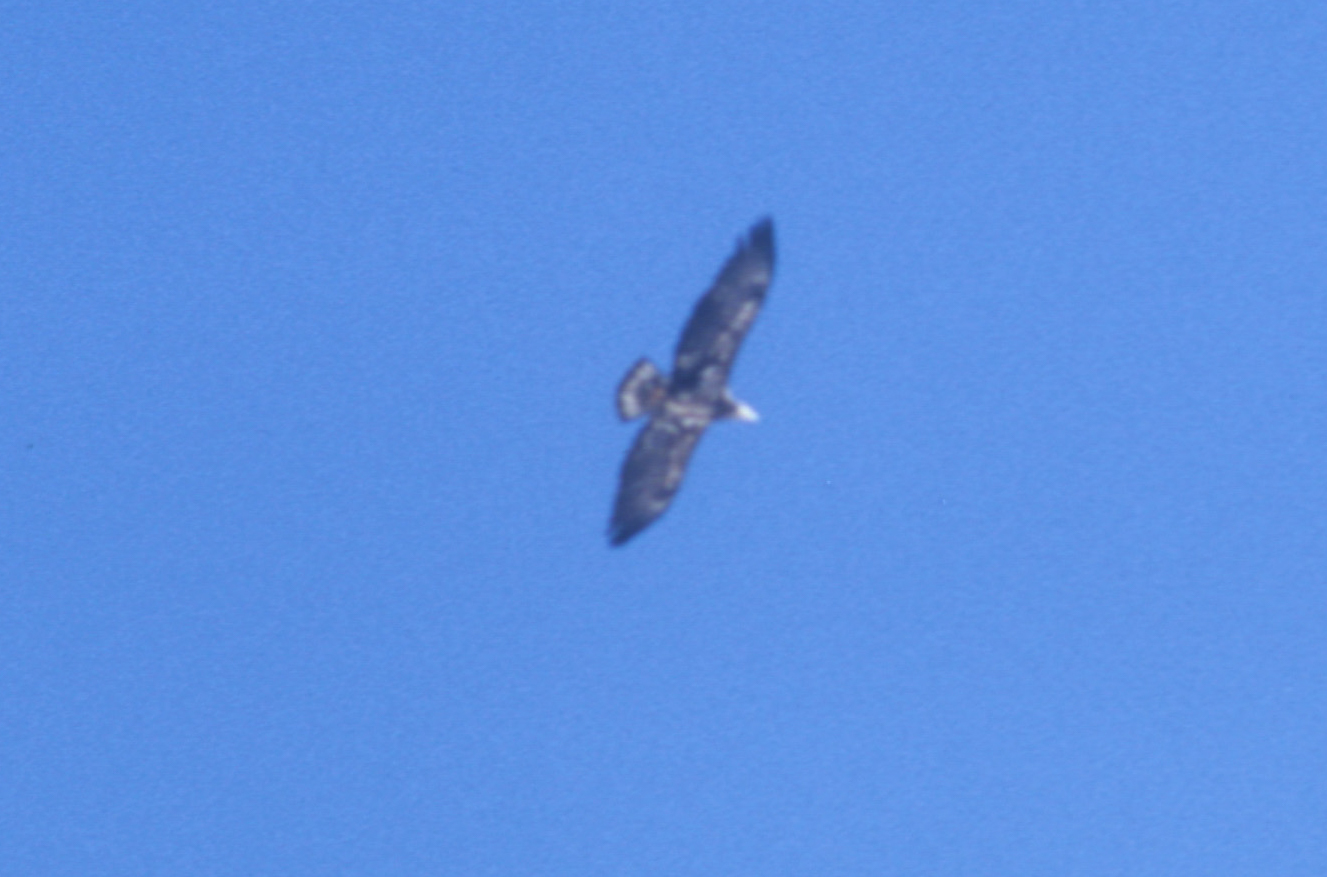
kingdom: Animalia
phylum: Chordata
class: Aves
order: Accipitriformes
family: Accipitridae
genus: Haliaeetus
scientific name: Haliaeetus leucocephalus
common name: Bald eagle
